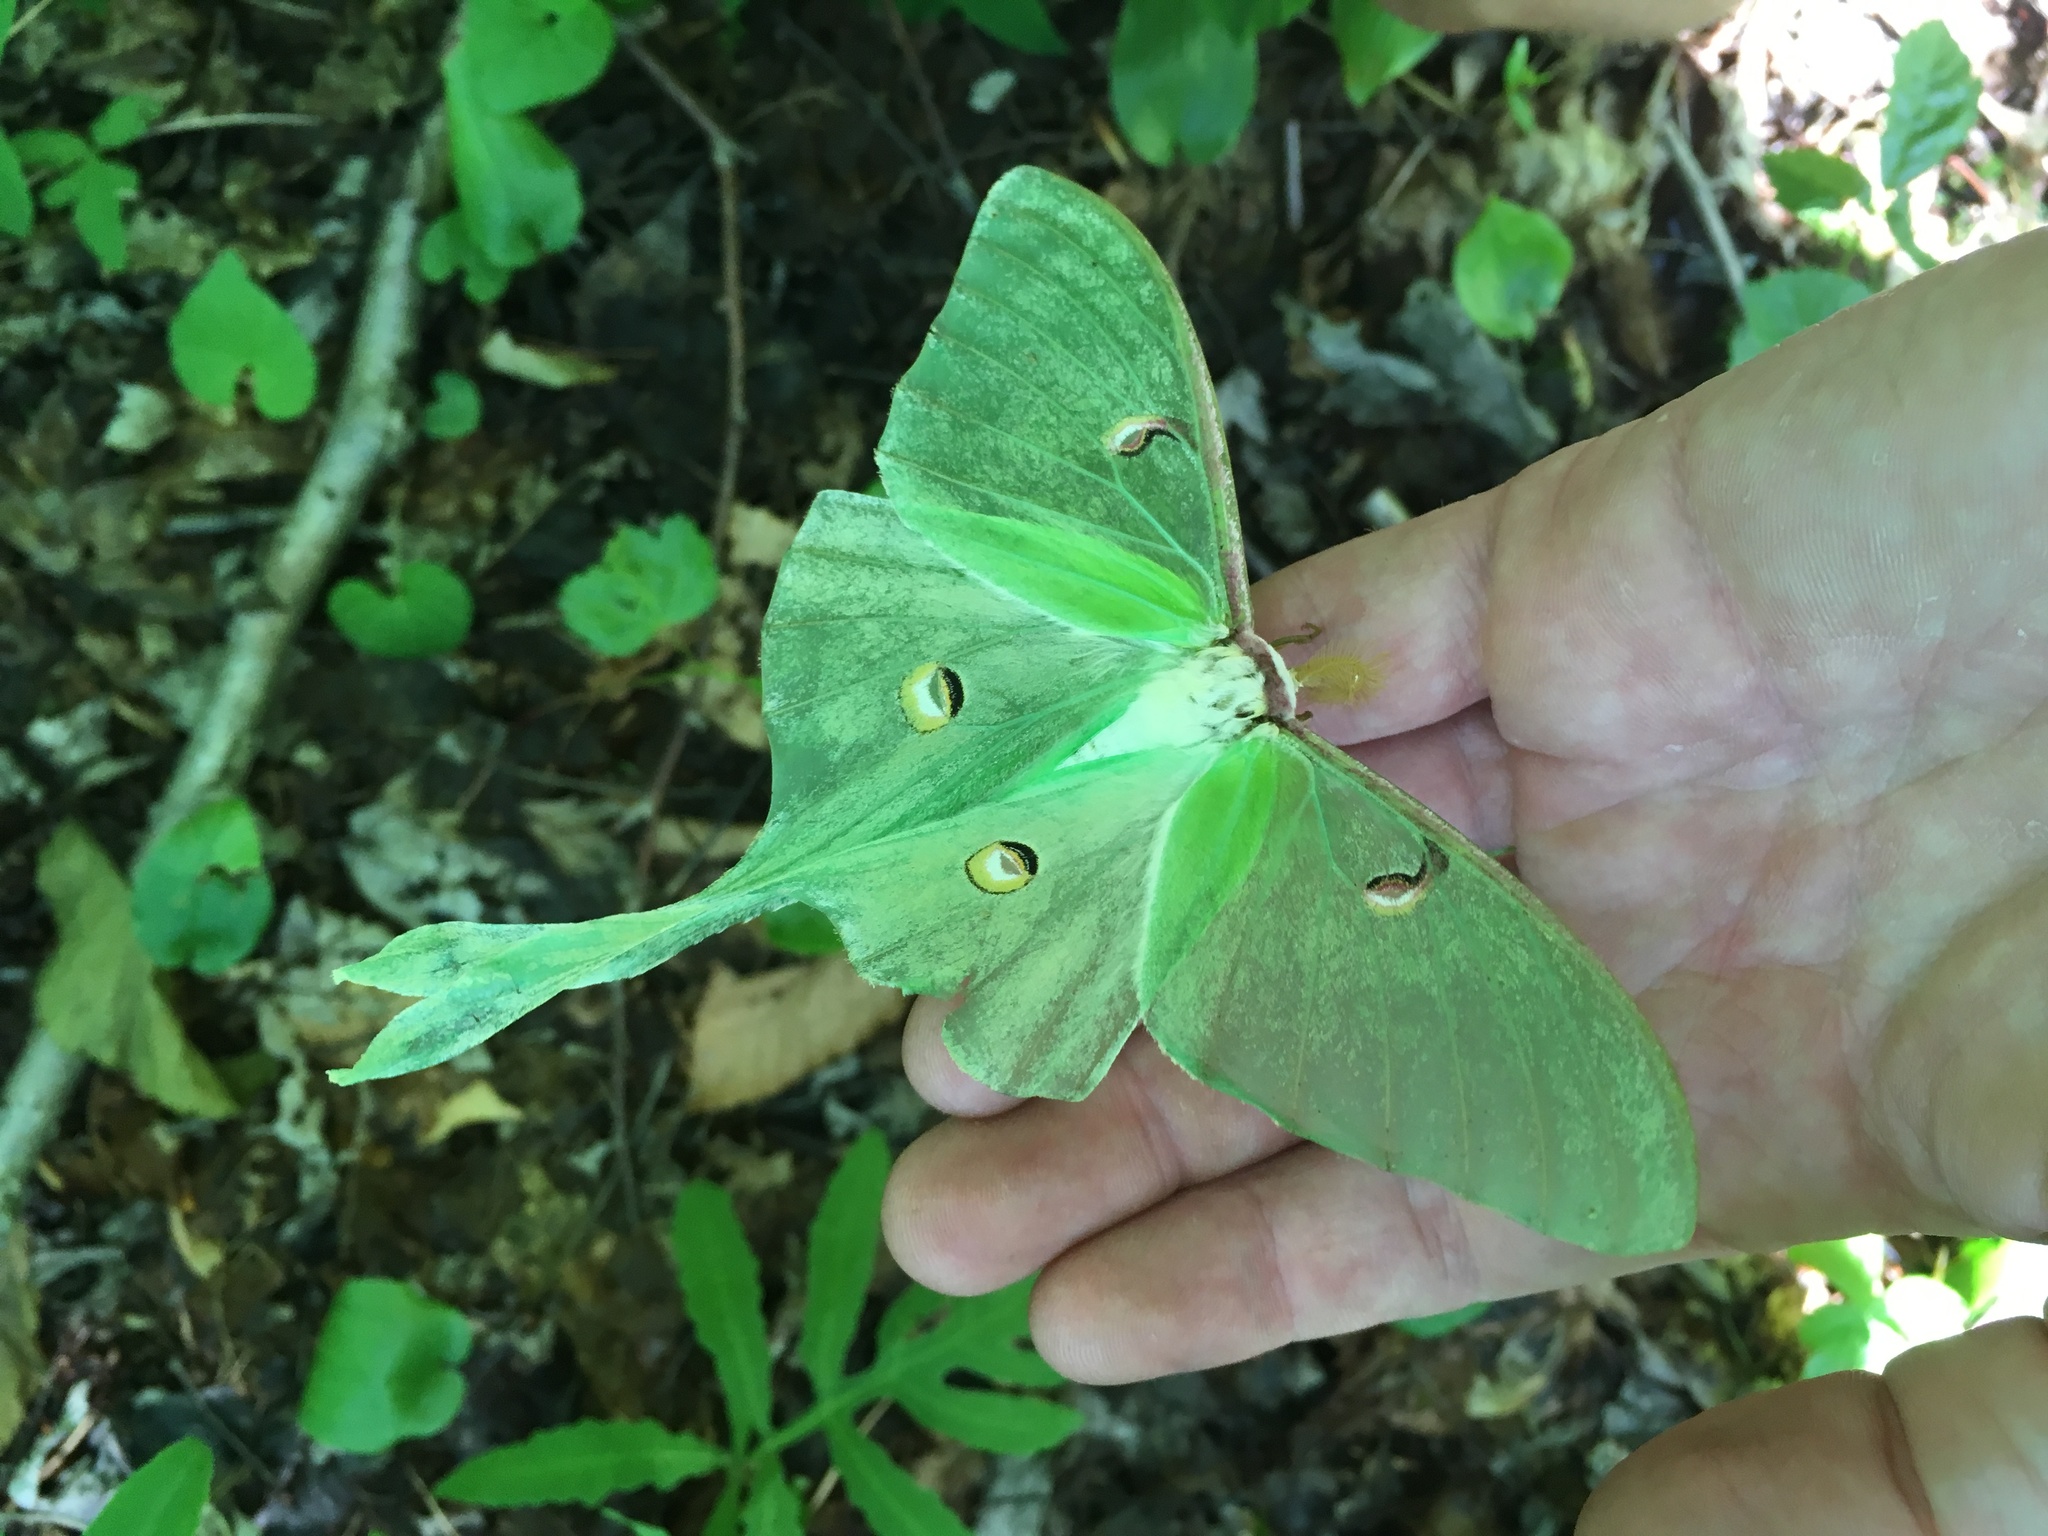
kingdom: Animalia
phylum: Arthropoda
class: Insecta
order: Lepidoptera
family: Saturniidae
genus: Actias
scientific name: Actias luna
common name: Luna moth
